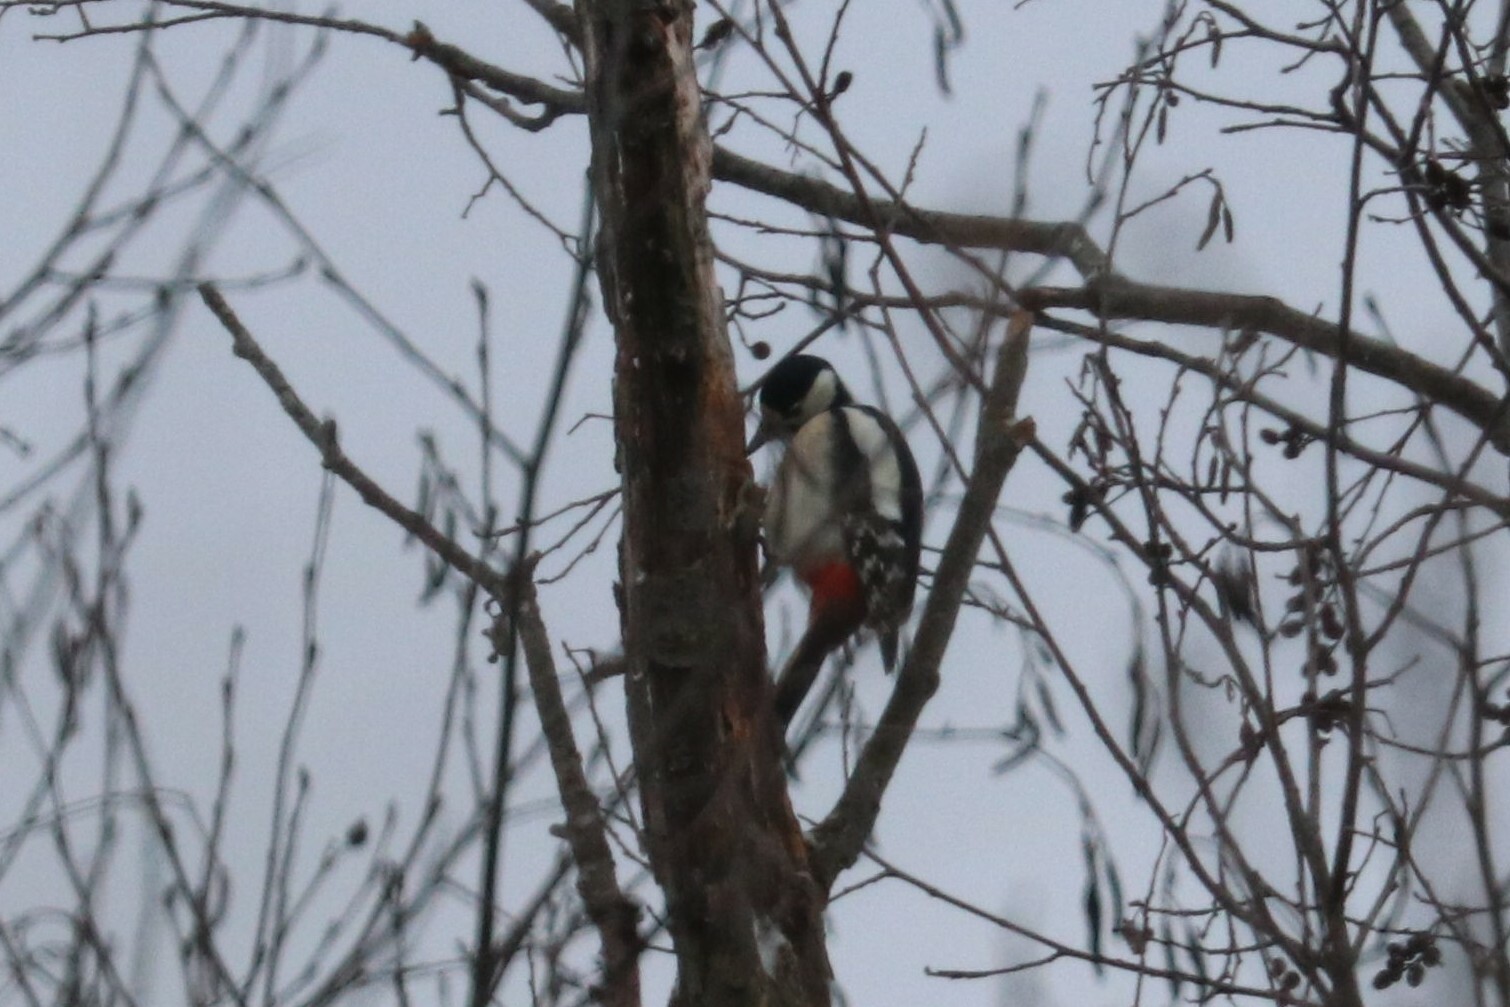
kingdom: Animalia
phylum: Chordata
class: Aves
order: Piciformes
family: Picidae
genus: Dendrocopos
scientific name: Dendrocopos major
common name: Great spotted woodpecker
